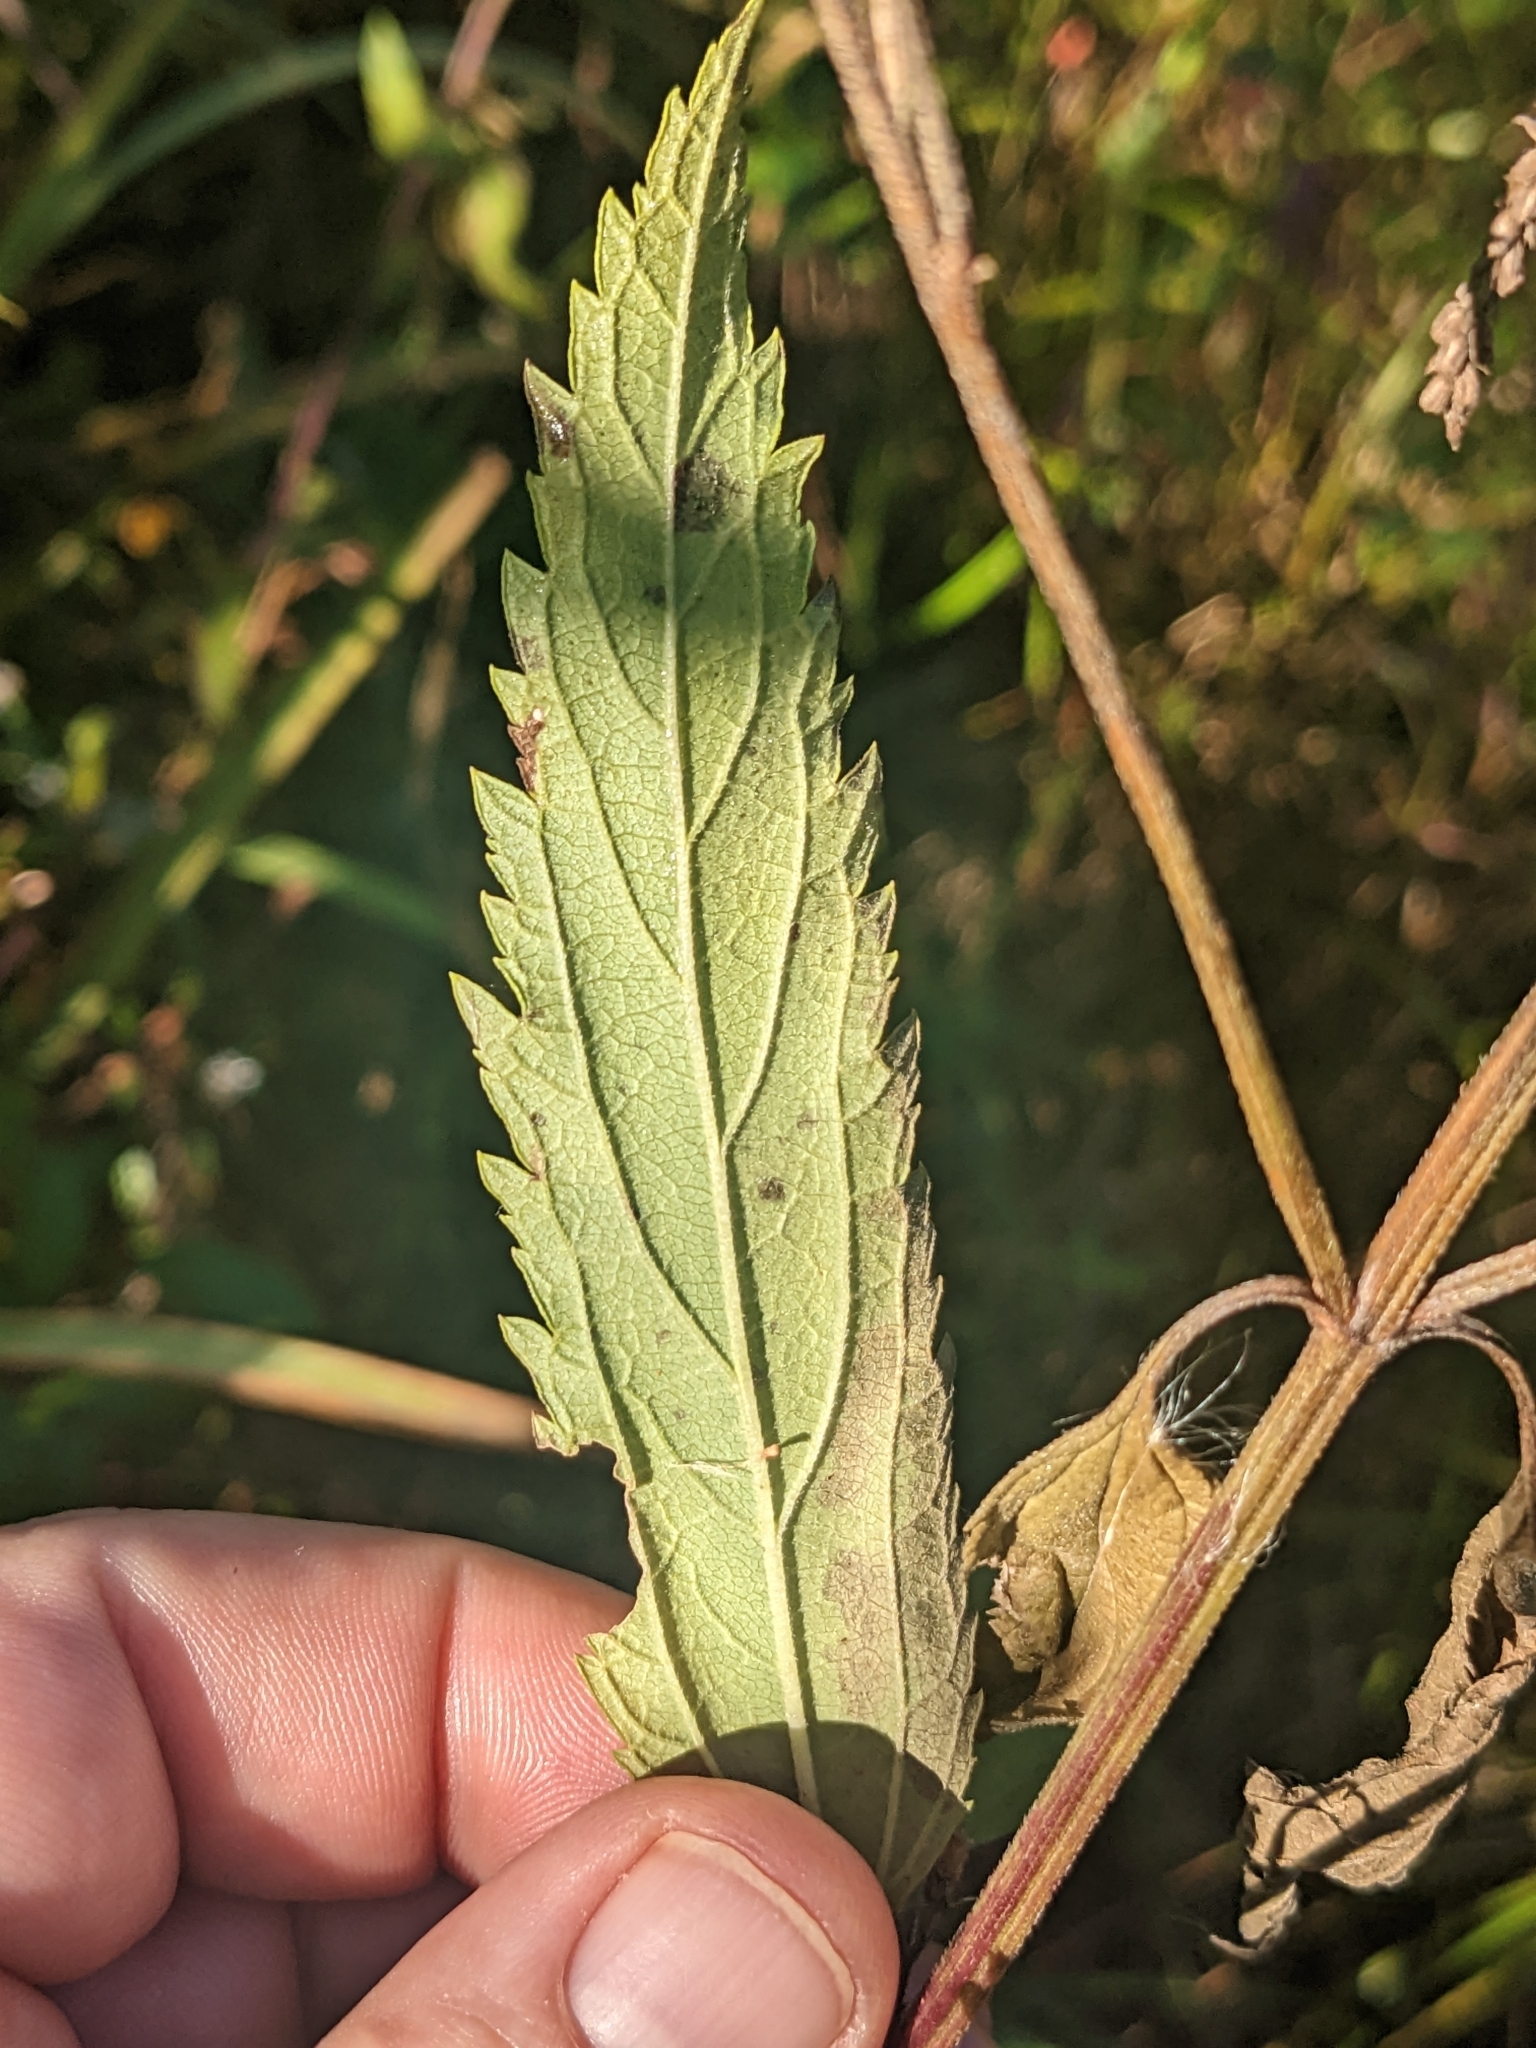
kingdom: Plantae
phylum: Tracheophyta
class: Magnoliopsida
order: Lamiales
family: Verbenaceae
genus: Verbena
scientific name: Verbena hastata
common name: American blue vervain
